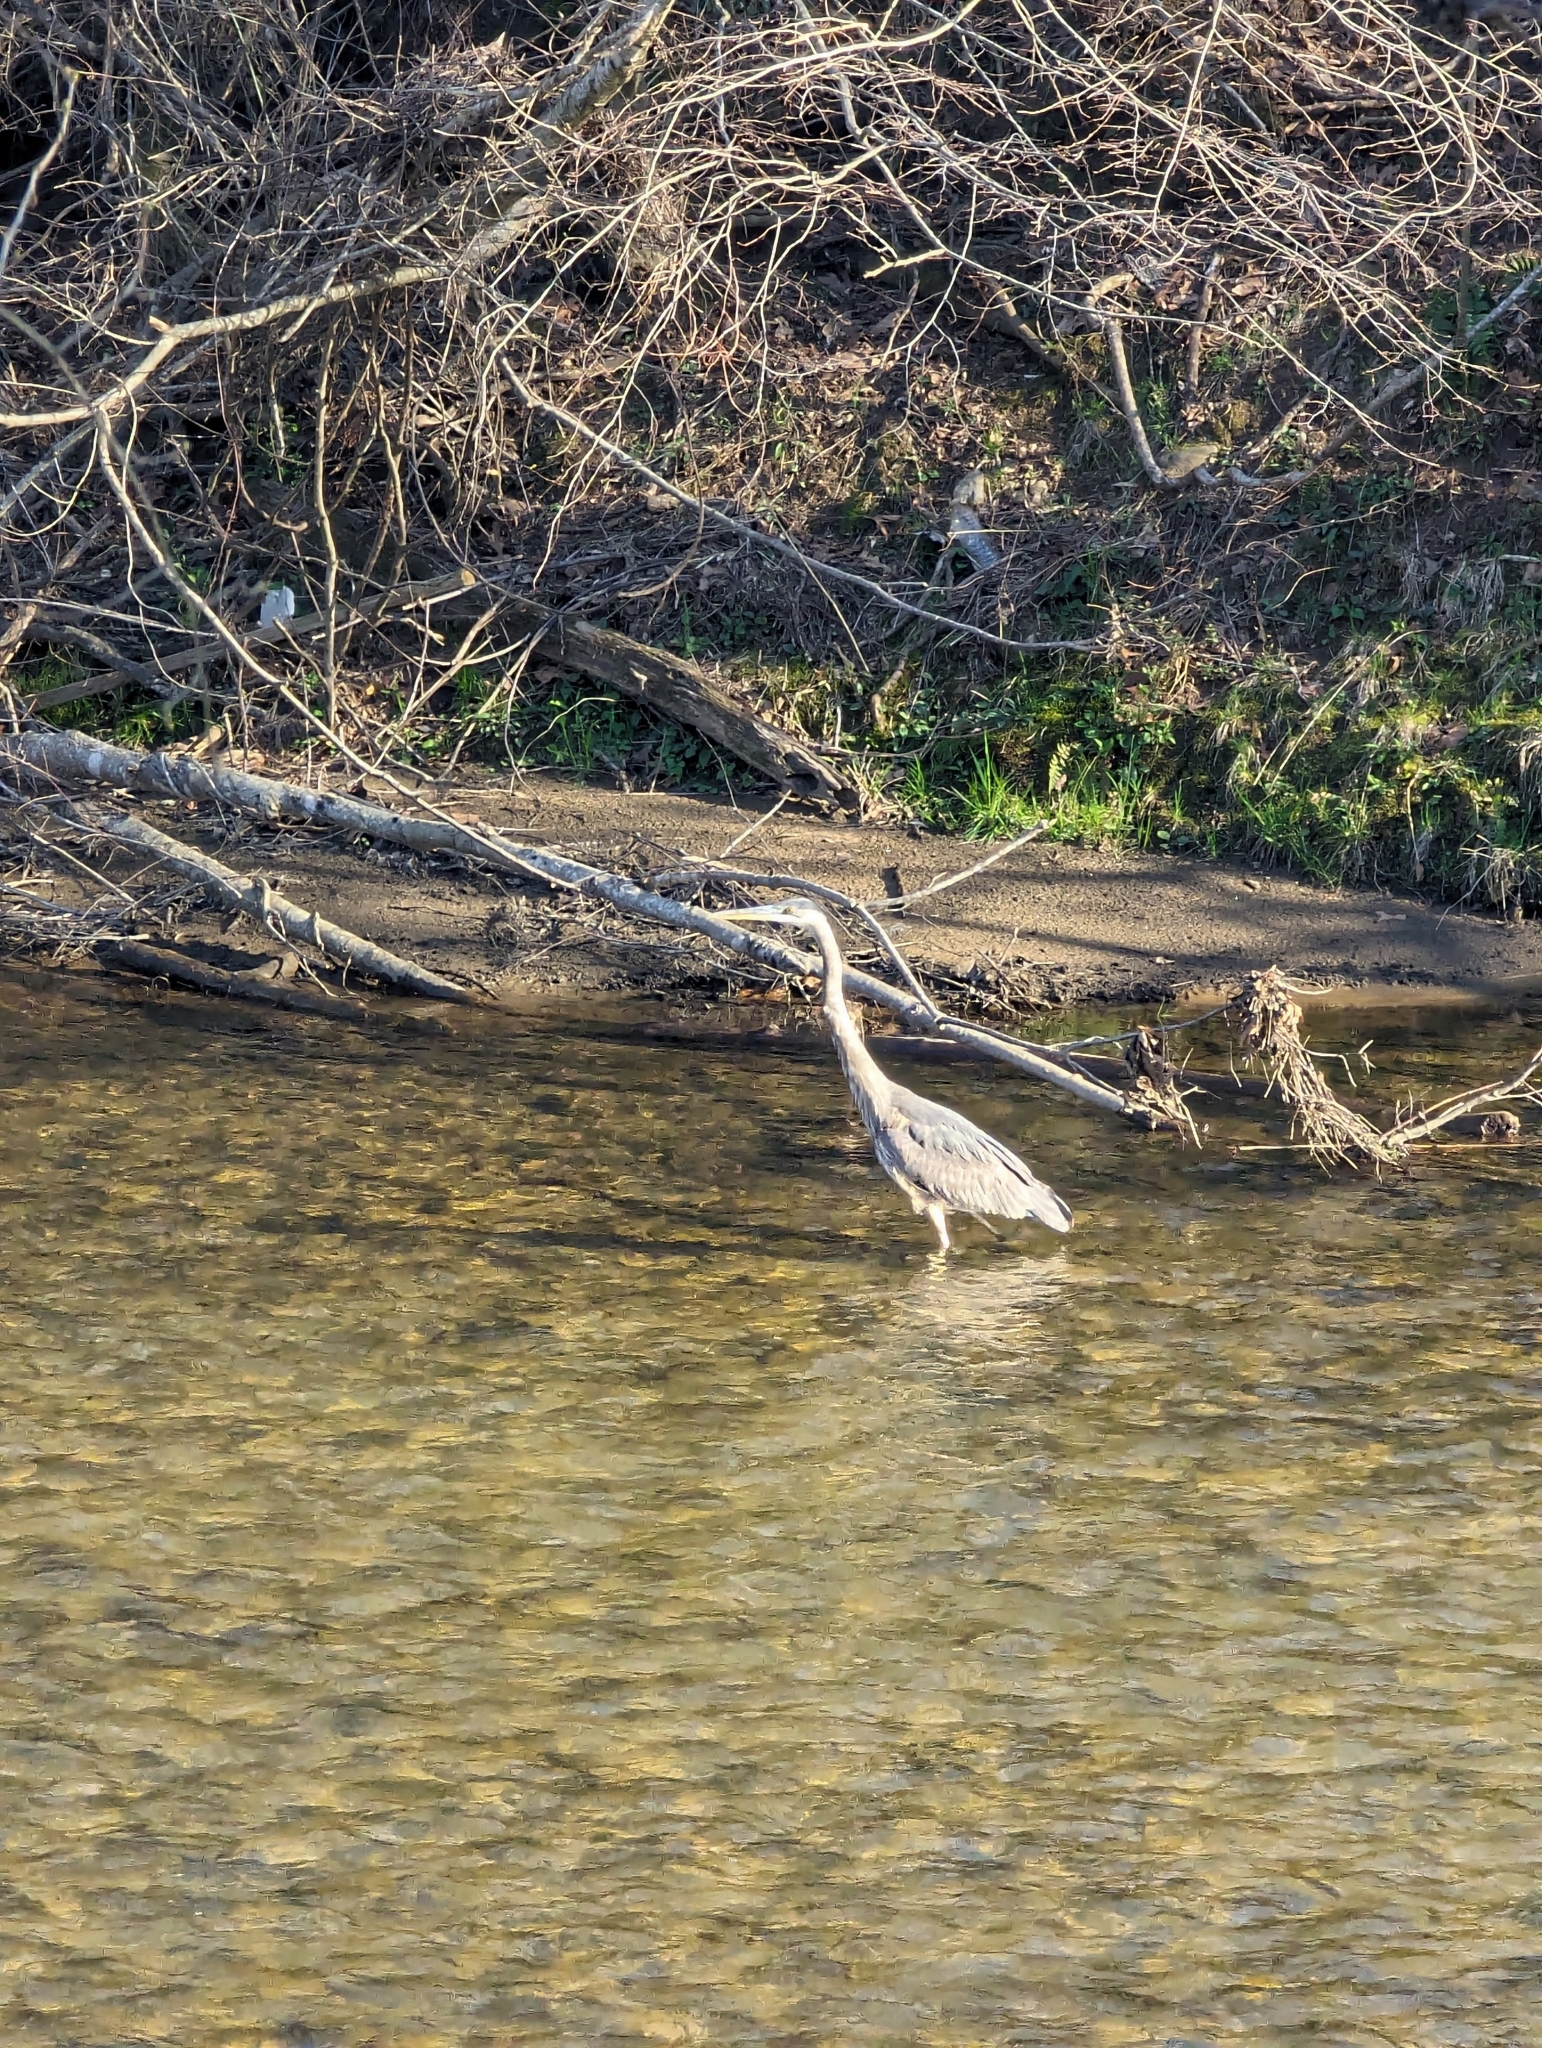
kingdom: Animalia
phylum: Chordata
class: Aves
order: Pelecaniformes
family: Ardeidae
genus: Ardea
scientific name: Ardea herodias
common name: Great blue heron
